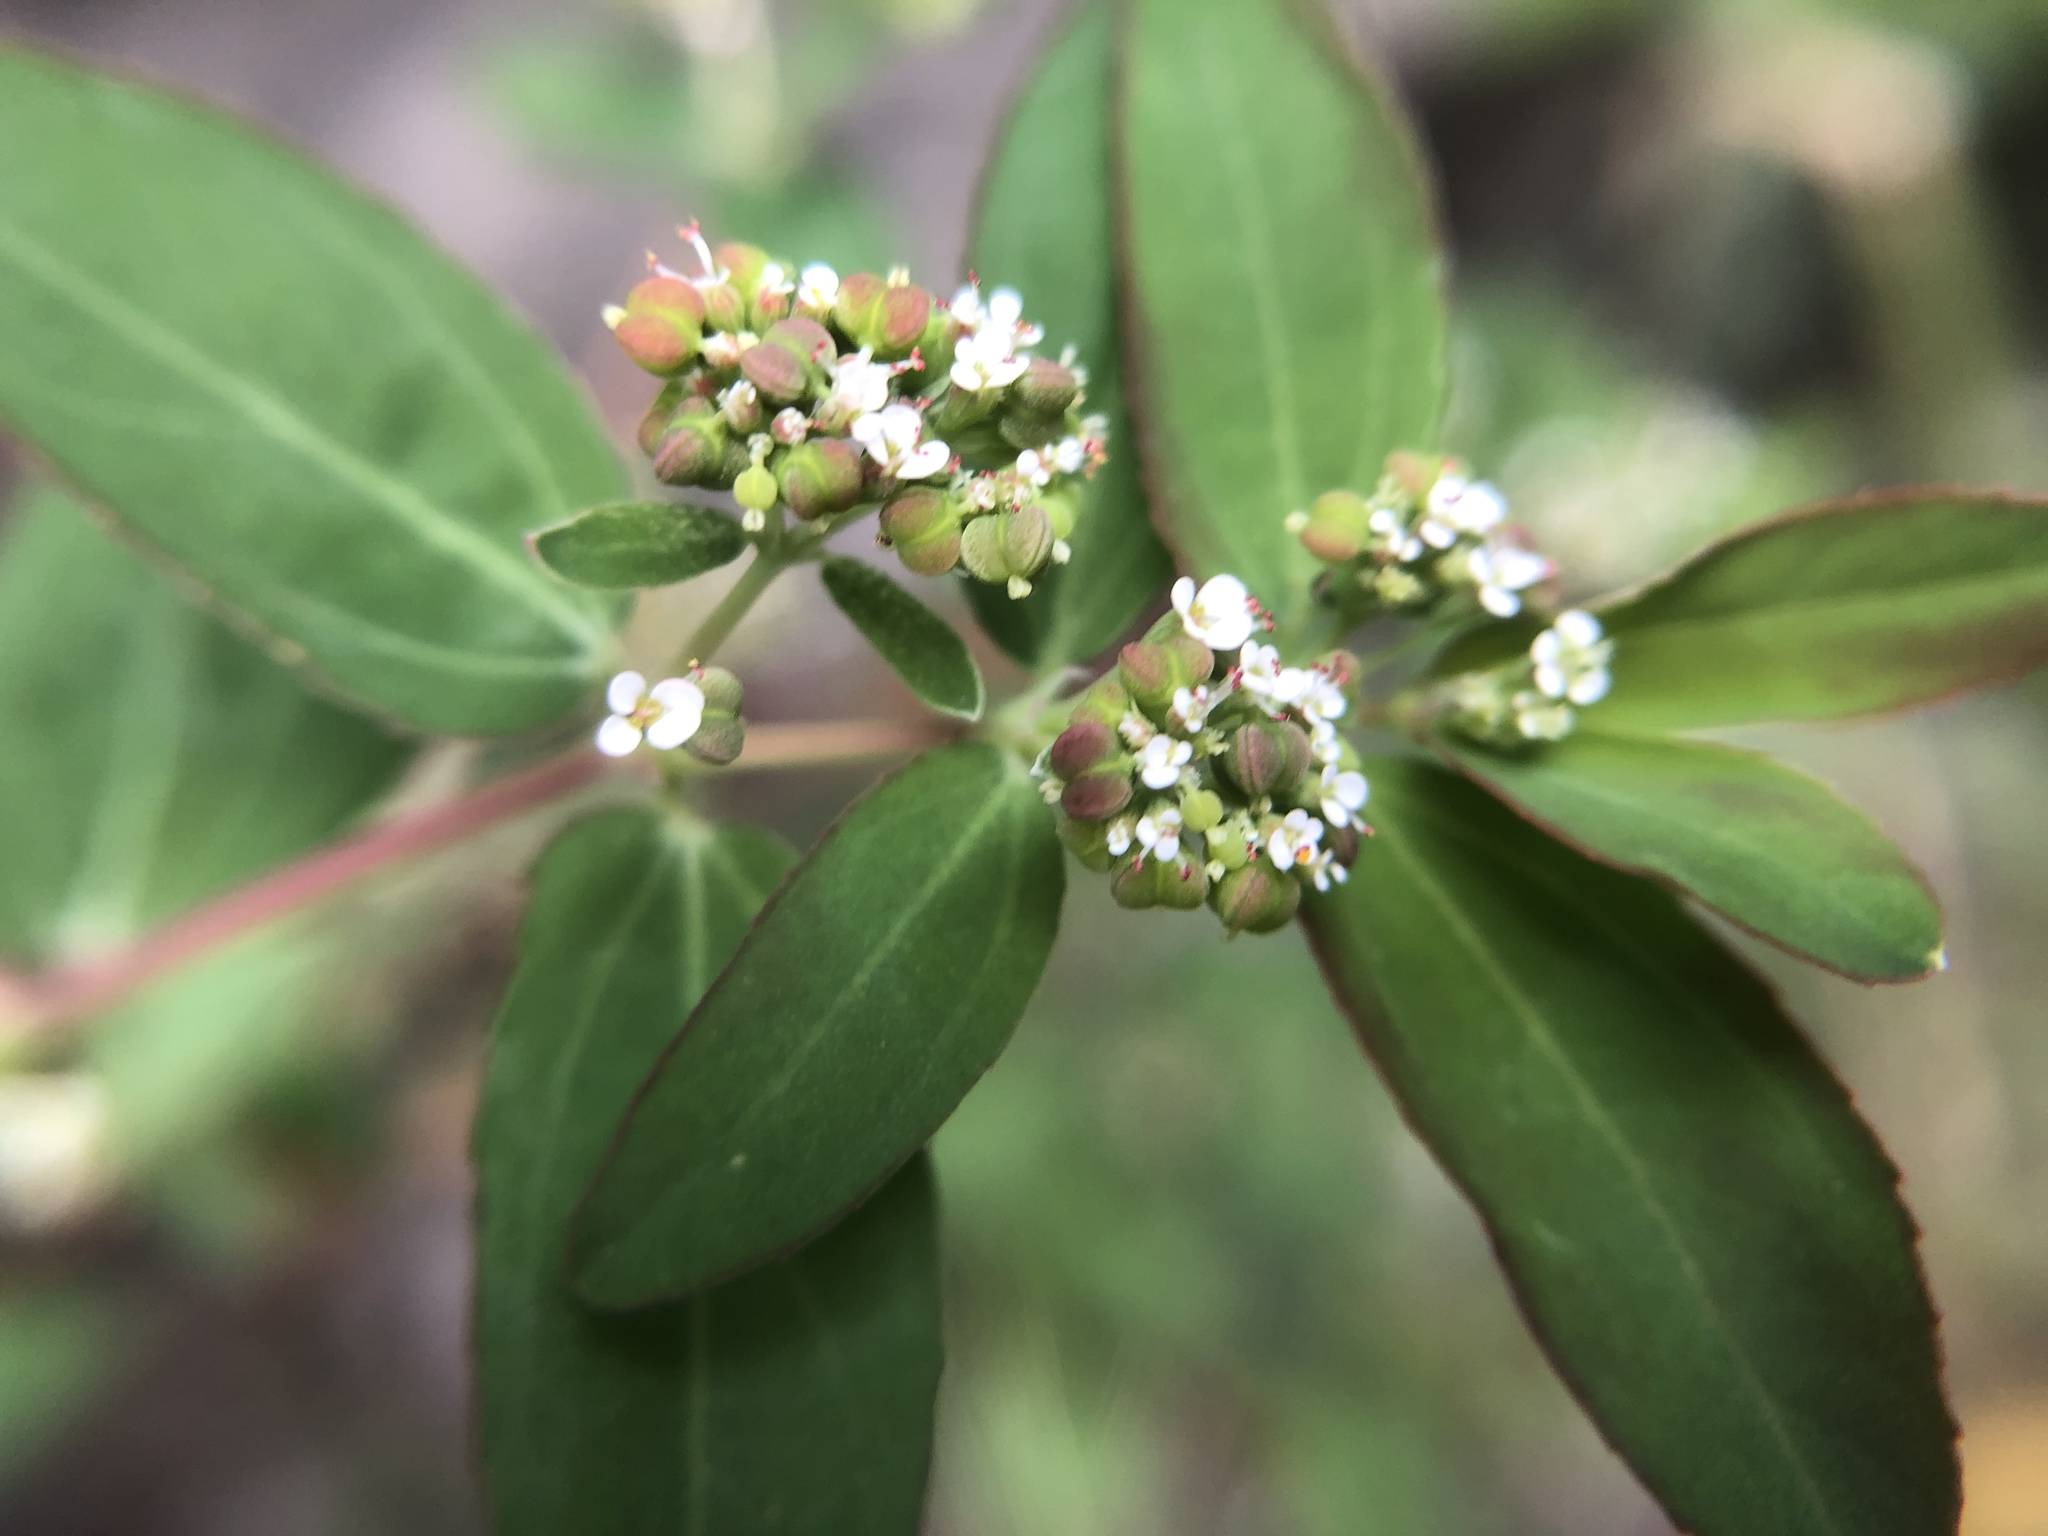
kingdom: Plantae
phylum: Tracheophyta
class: Magnoliopsida
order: Malpighiales
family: Euphorbiaceae
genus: Euphorbia
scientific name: Euphorbia hypericifolia
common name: Graceful sandmat
